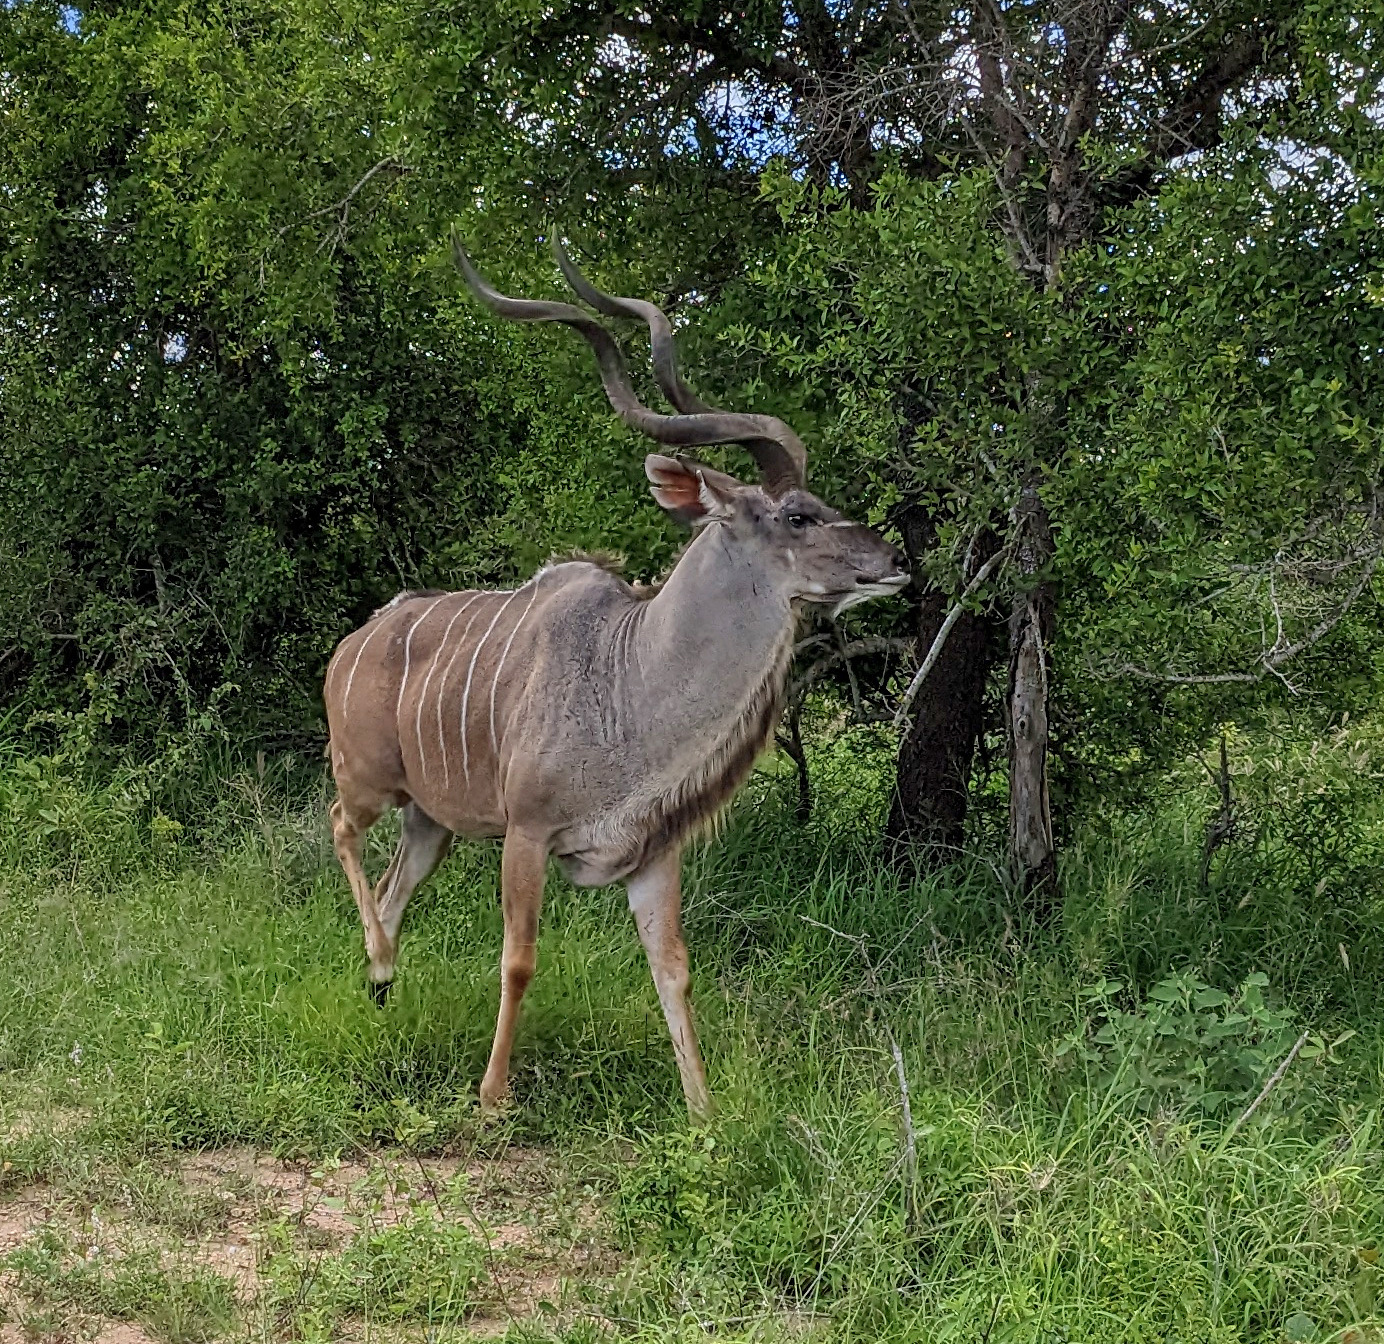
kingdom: Animalia
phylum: Chordata
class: Mammalia
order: Artiodactyla
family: Bovidae
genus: Tragelaphus
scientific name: Tragelaphus strepsiceros
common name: Greater kudu
